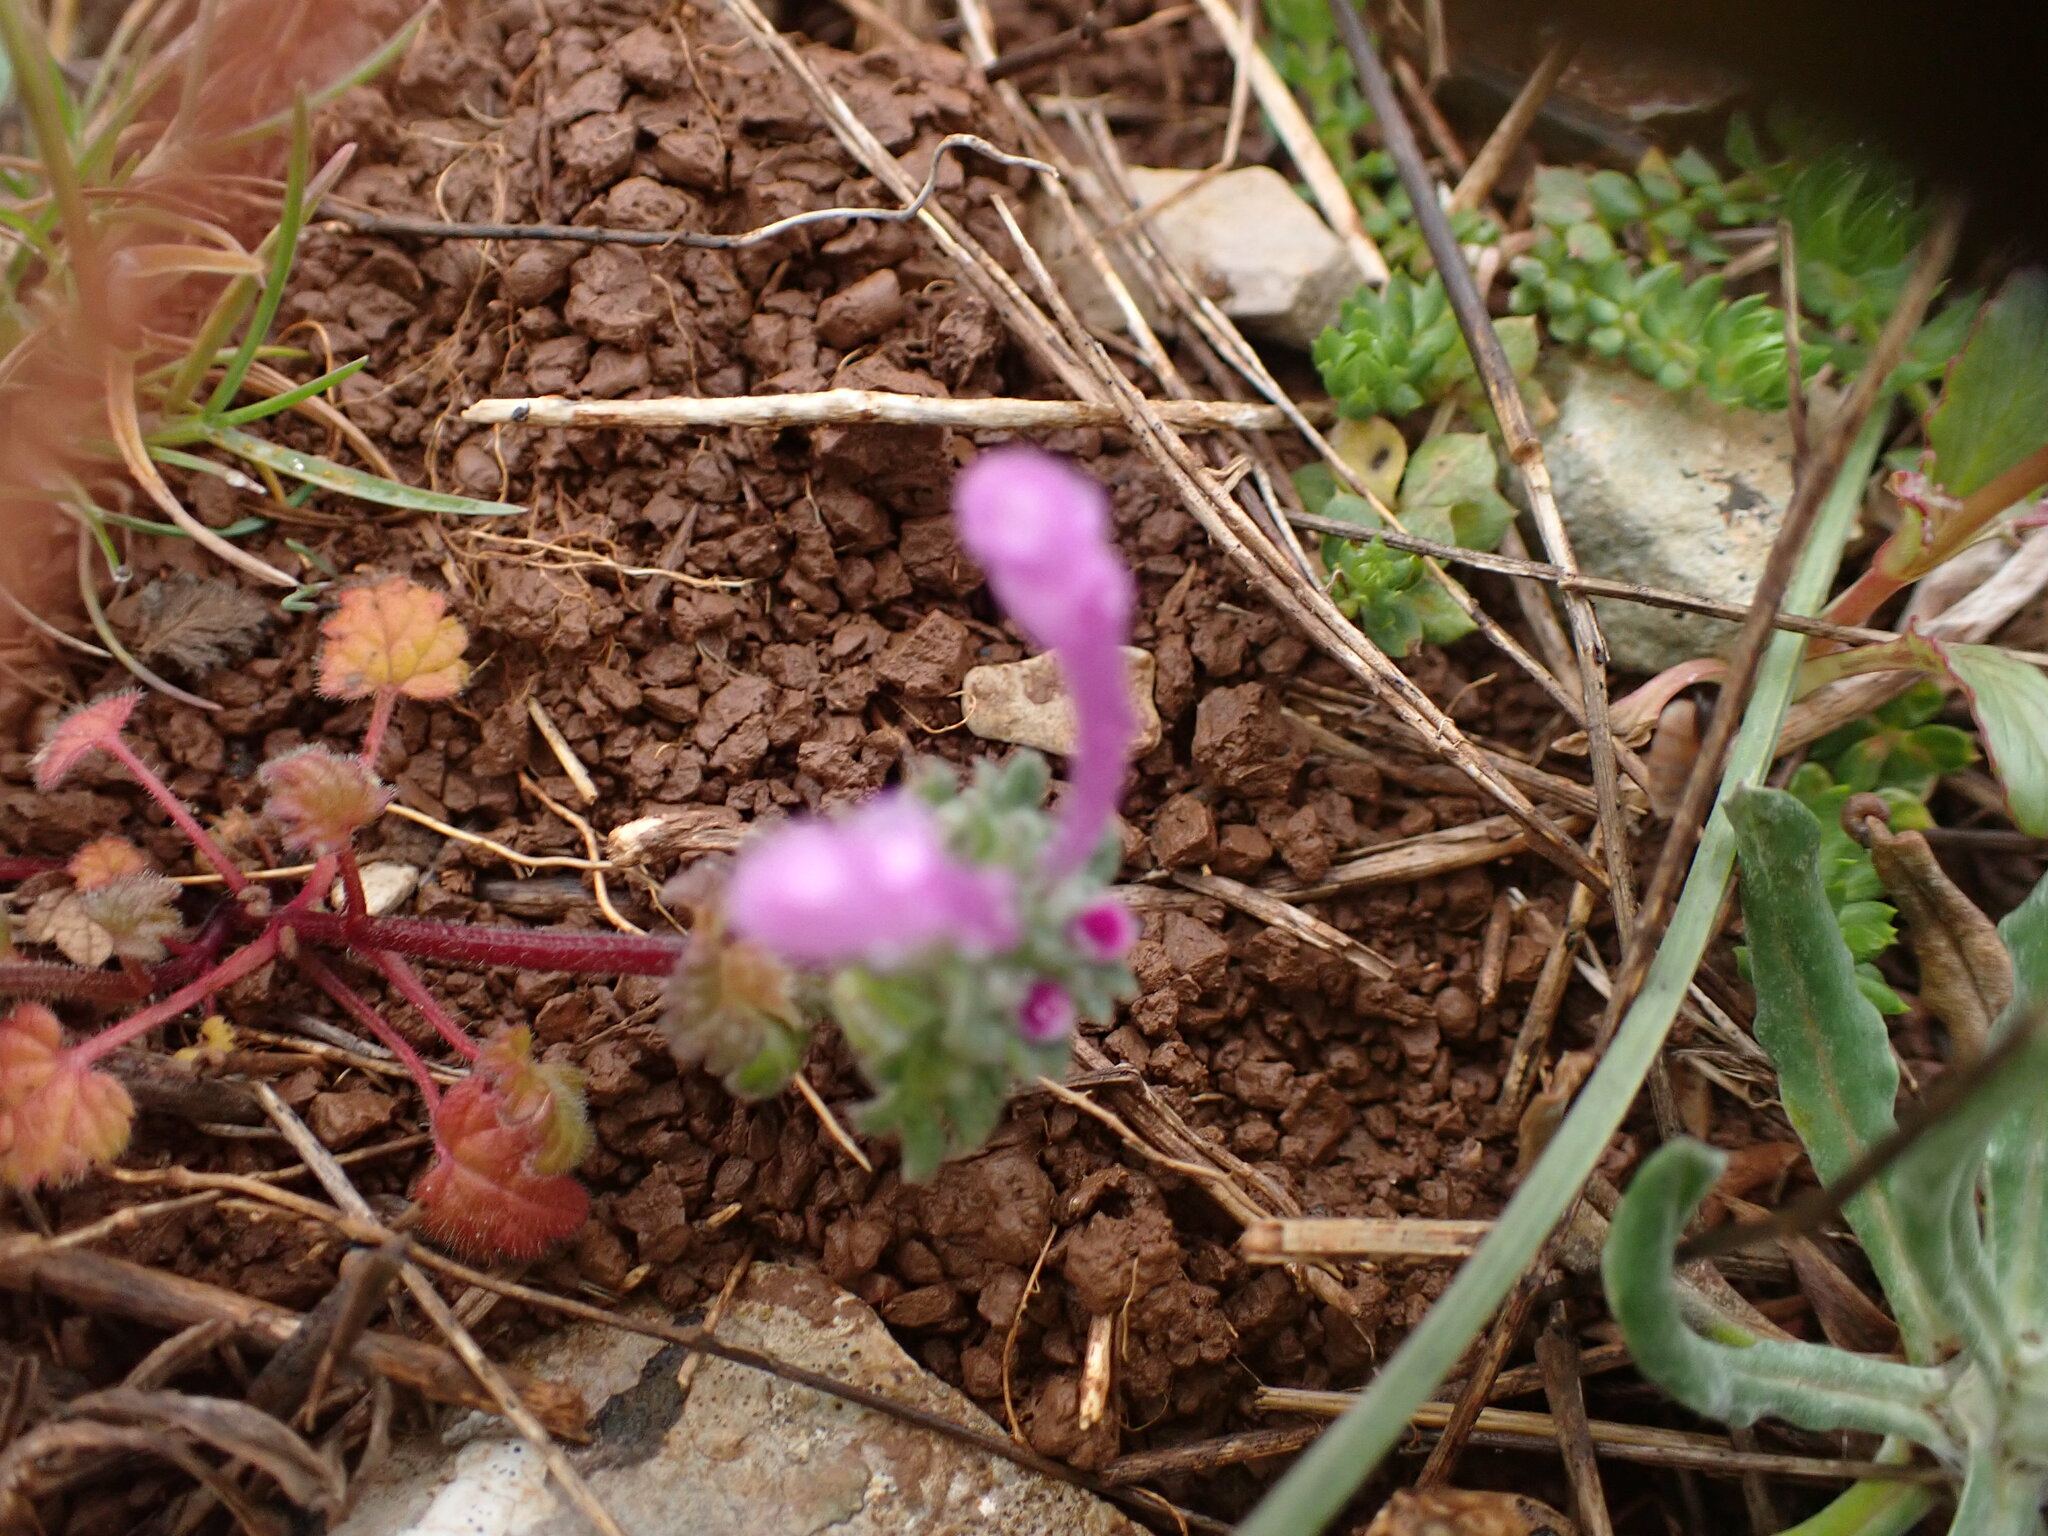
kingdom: Plantae
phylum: Tracheophyta
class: Magnoliopsida
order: Lamiales
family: Lamiaceae
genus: Lamium
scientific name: Lamium amplexicaule
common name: Henbit dead-nettle
